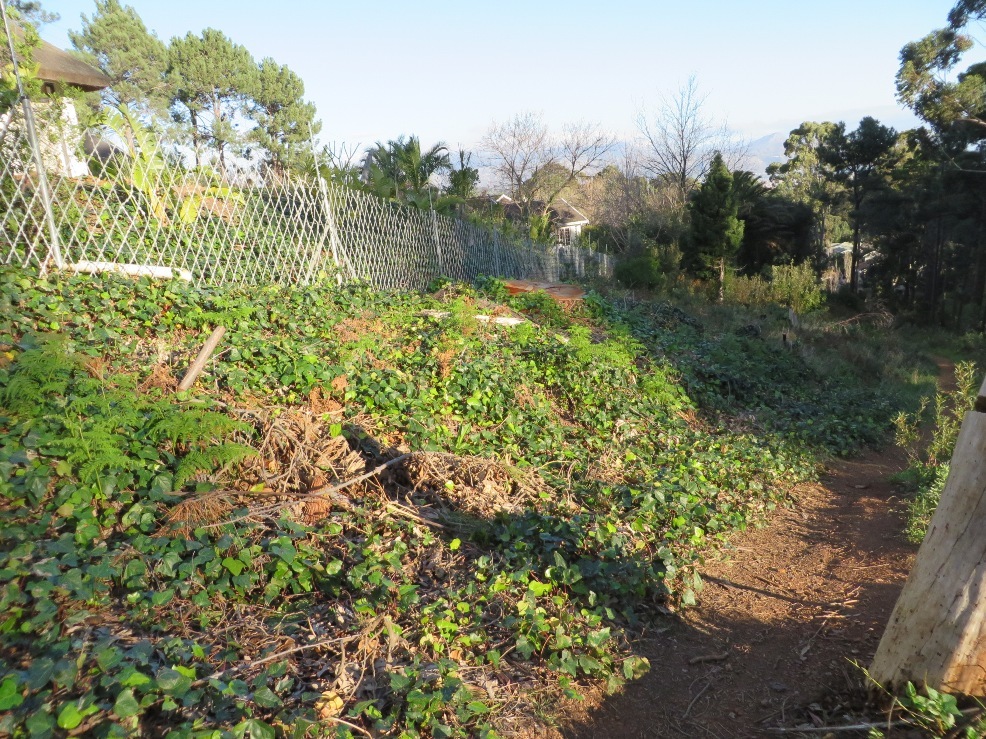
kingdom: Plantae
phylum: Tracheophyta
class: Magnoliopsida
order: Apiales
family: Araliaceae
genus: Hedera
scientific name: Hedera canariensis
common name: Madeira ivy
